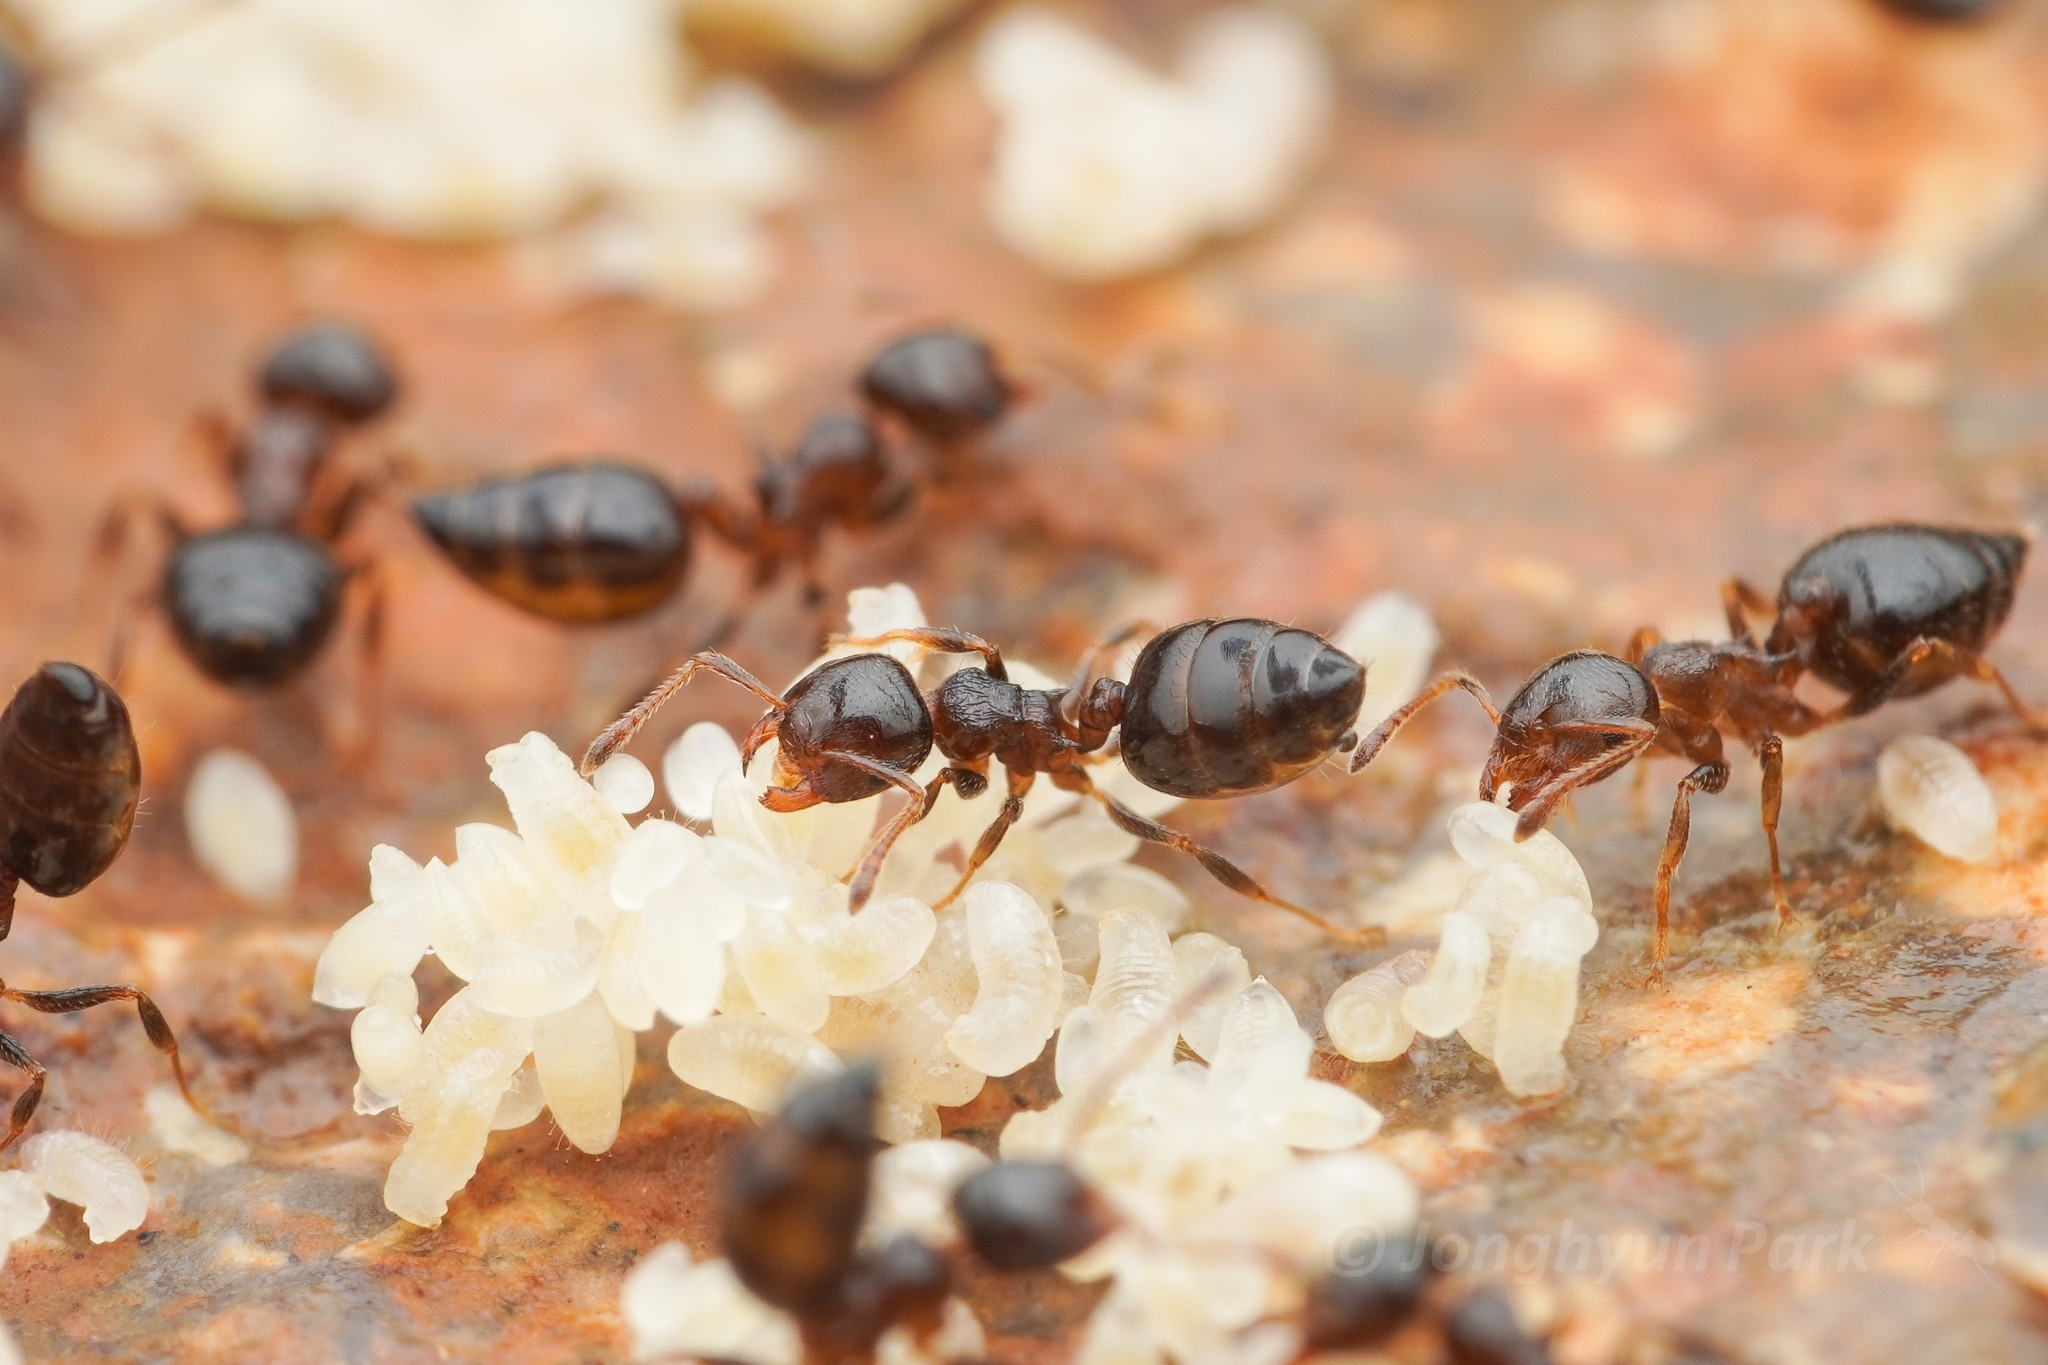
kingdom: Animalia
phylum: Arthropoda
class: Insecta
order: Hymenoptera
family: Formicidae
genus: Crematogaster
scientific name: Crematogaster
